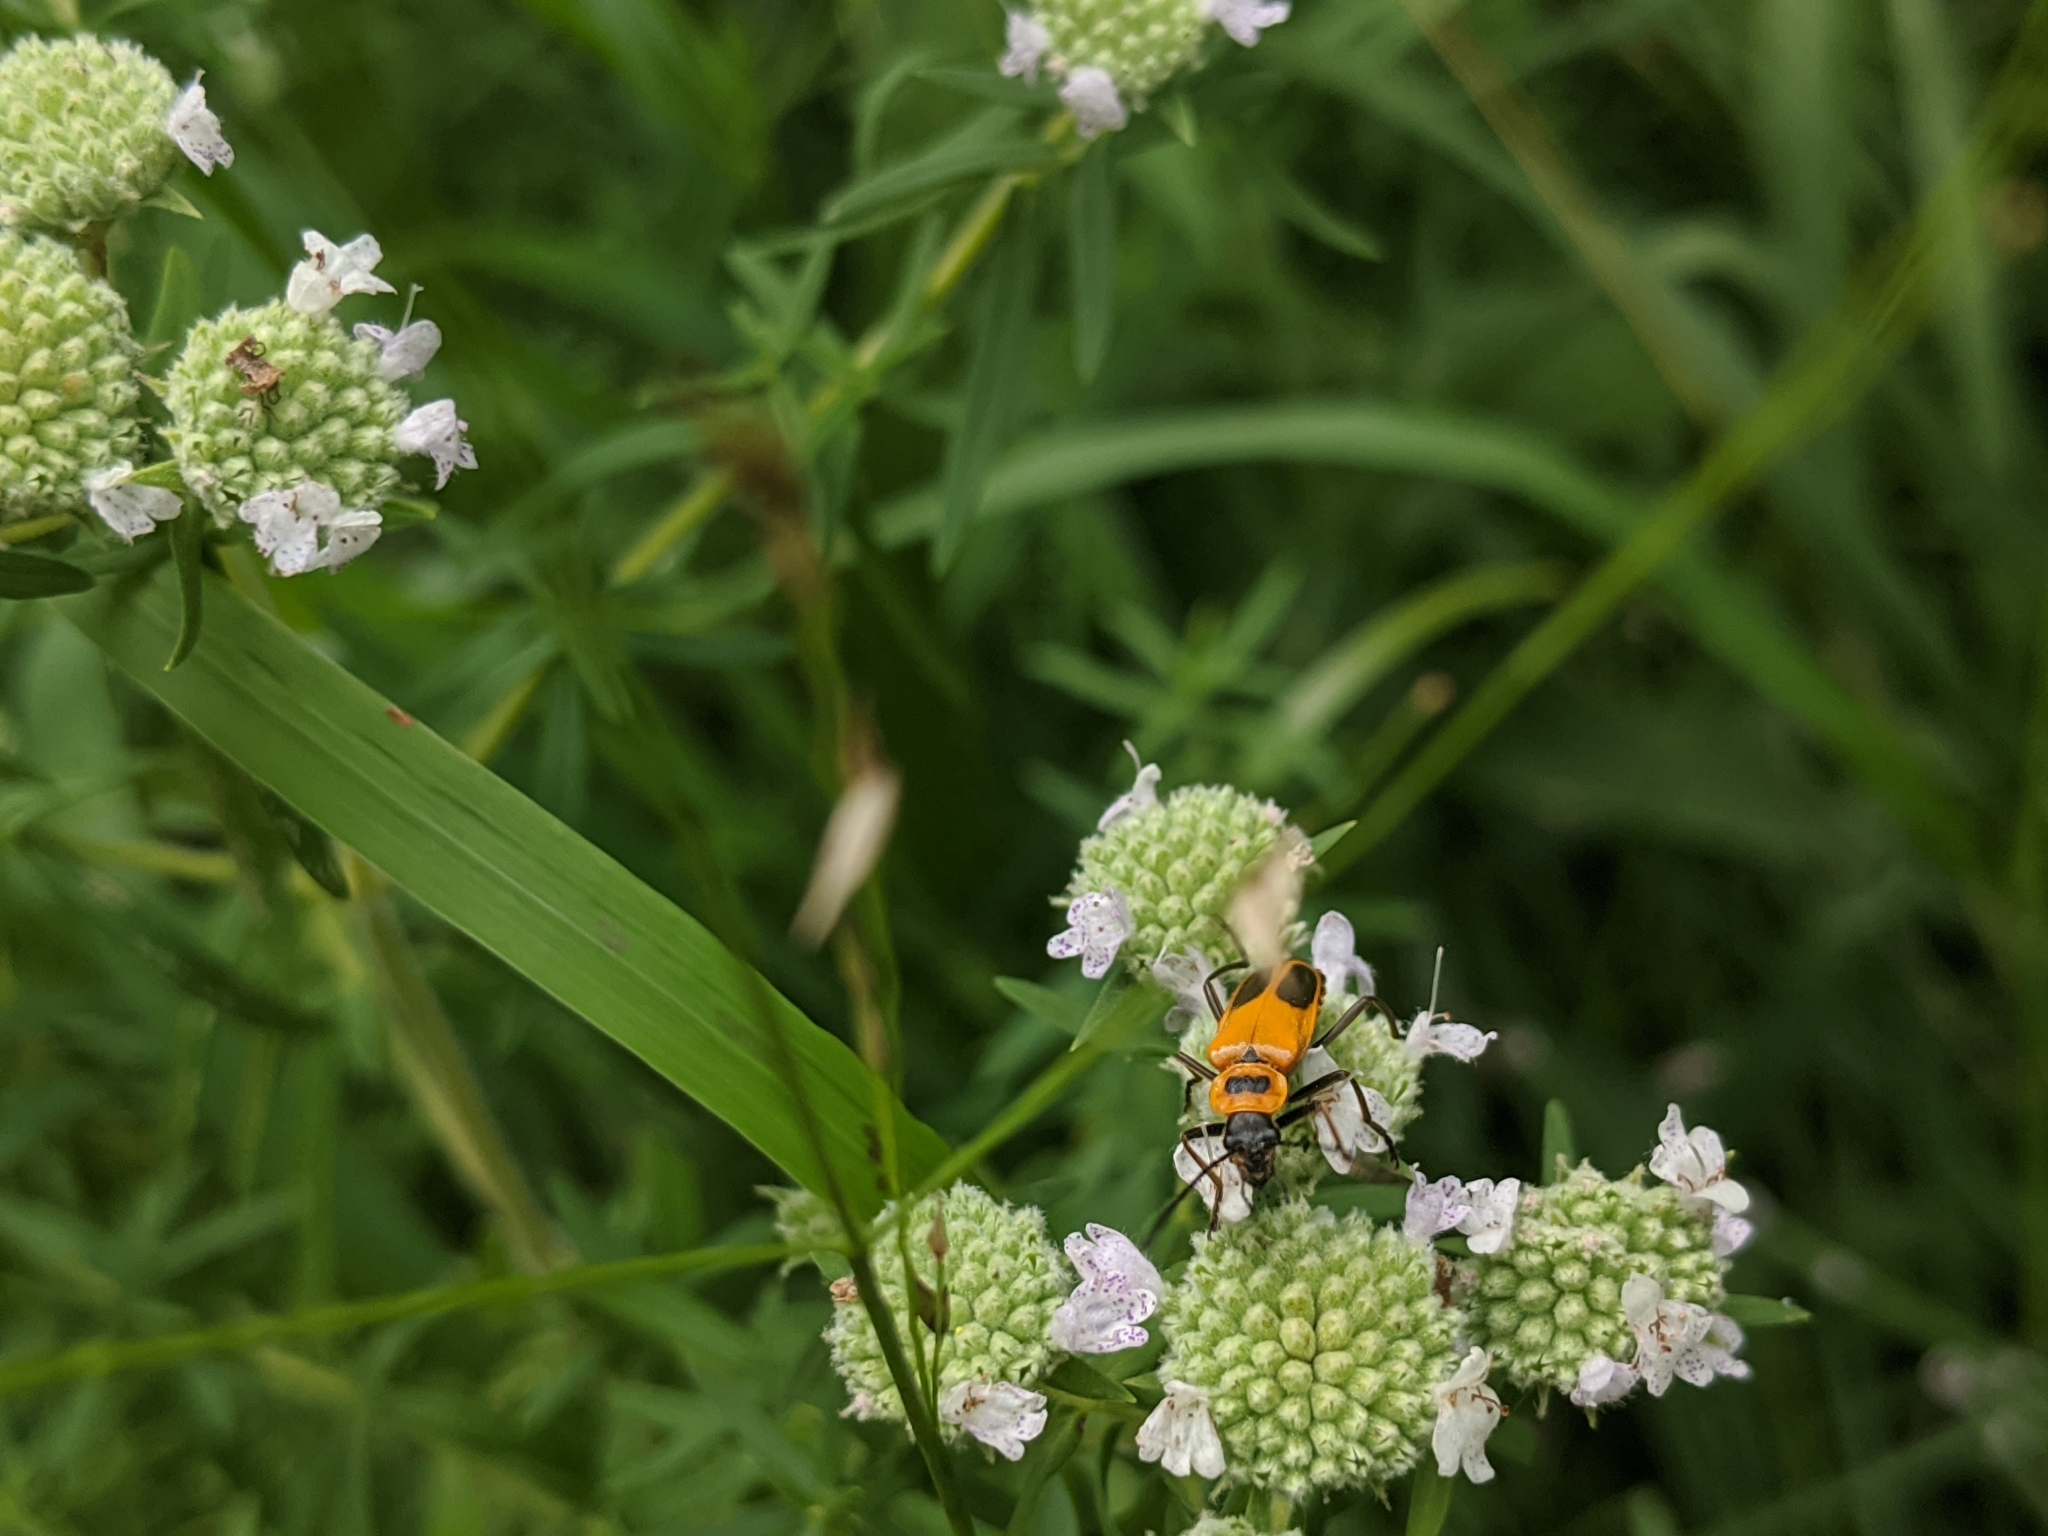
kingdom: Animalia
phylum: Arthropoda
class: Insecta
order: Coleoptera
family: Cantharidae
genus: Chauliognathus
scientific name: Chauliognathus pensylvanicus
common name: Goldenrod soldier beetle
